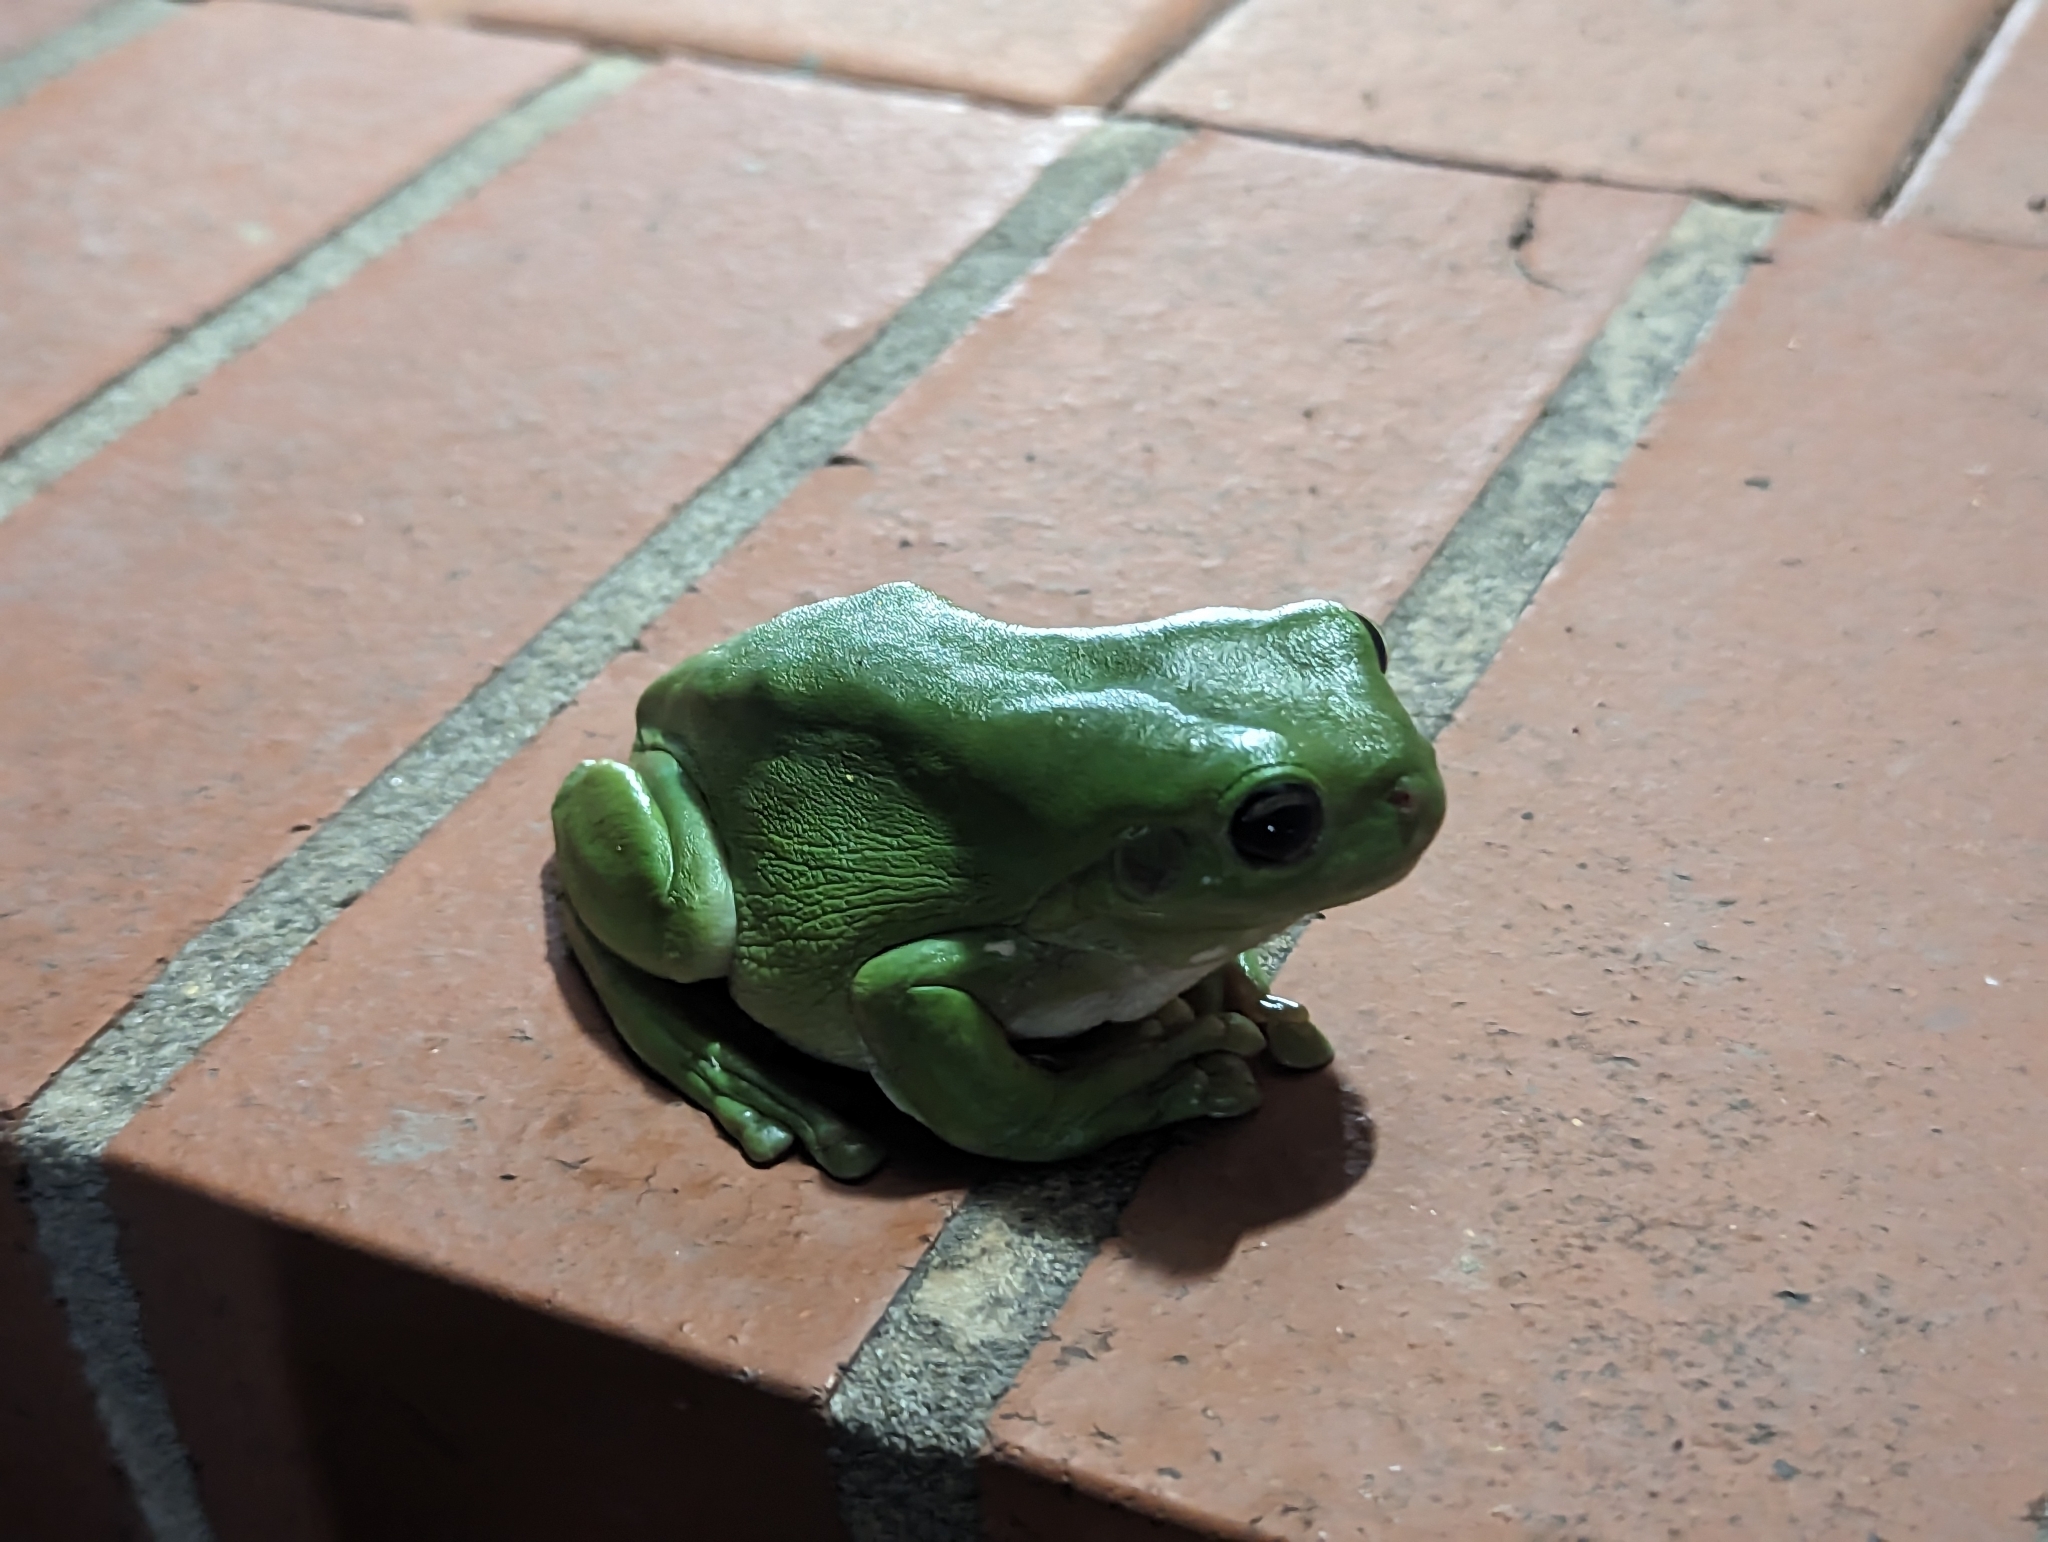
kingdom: Animalia
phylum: Chordata
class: Amphibia
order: Anura
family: Pelodryadidae
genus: Ranoidea
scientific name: Ranoidea caerulea
